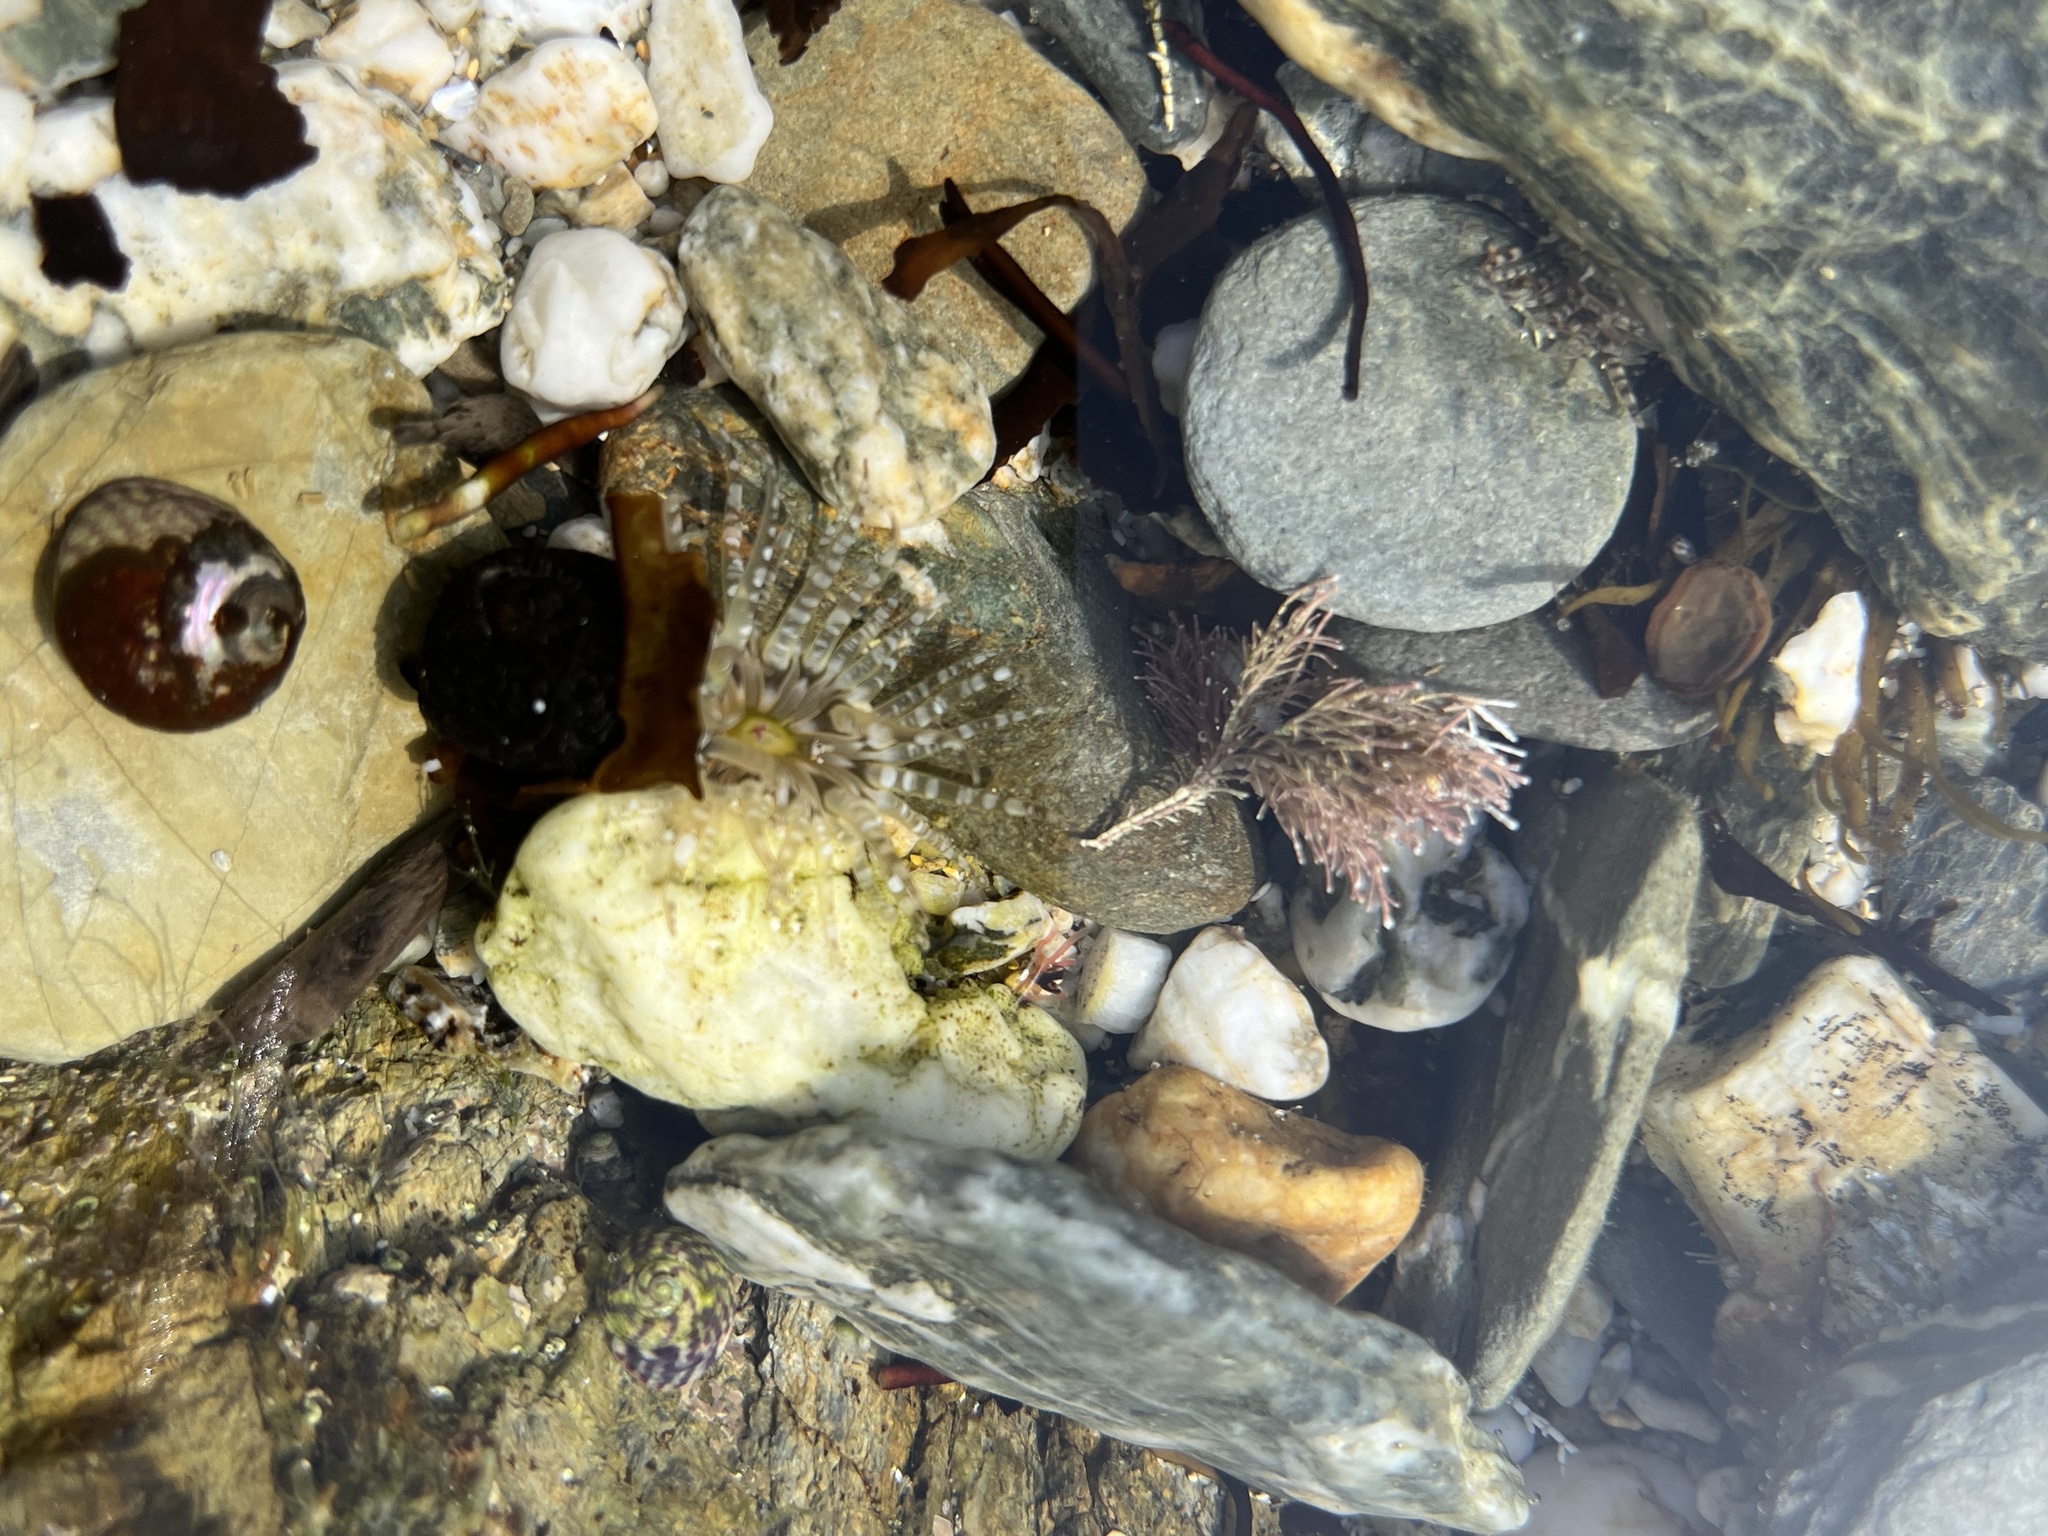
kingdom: Animalia
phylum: Cnidaria
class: Anthozoa
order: Actiniaria
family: Actiniidae
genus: Bunodactis
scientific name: Bunodactis verrucosa
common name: Gem anemone
